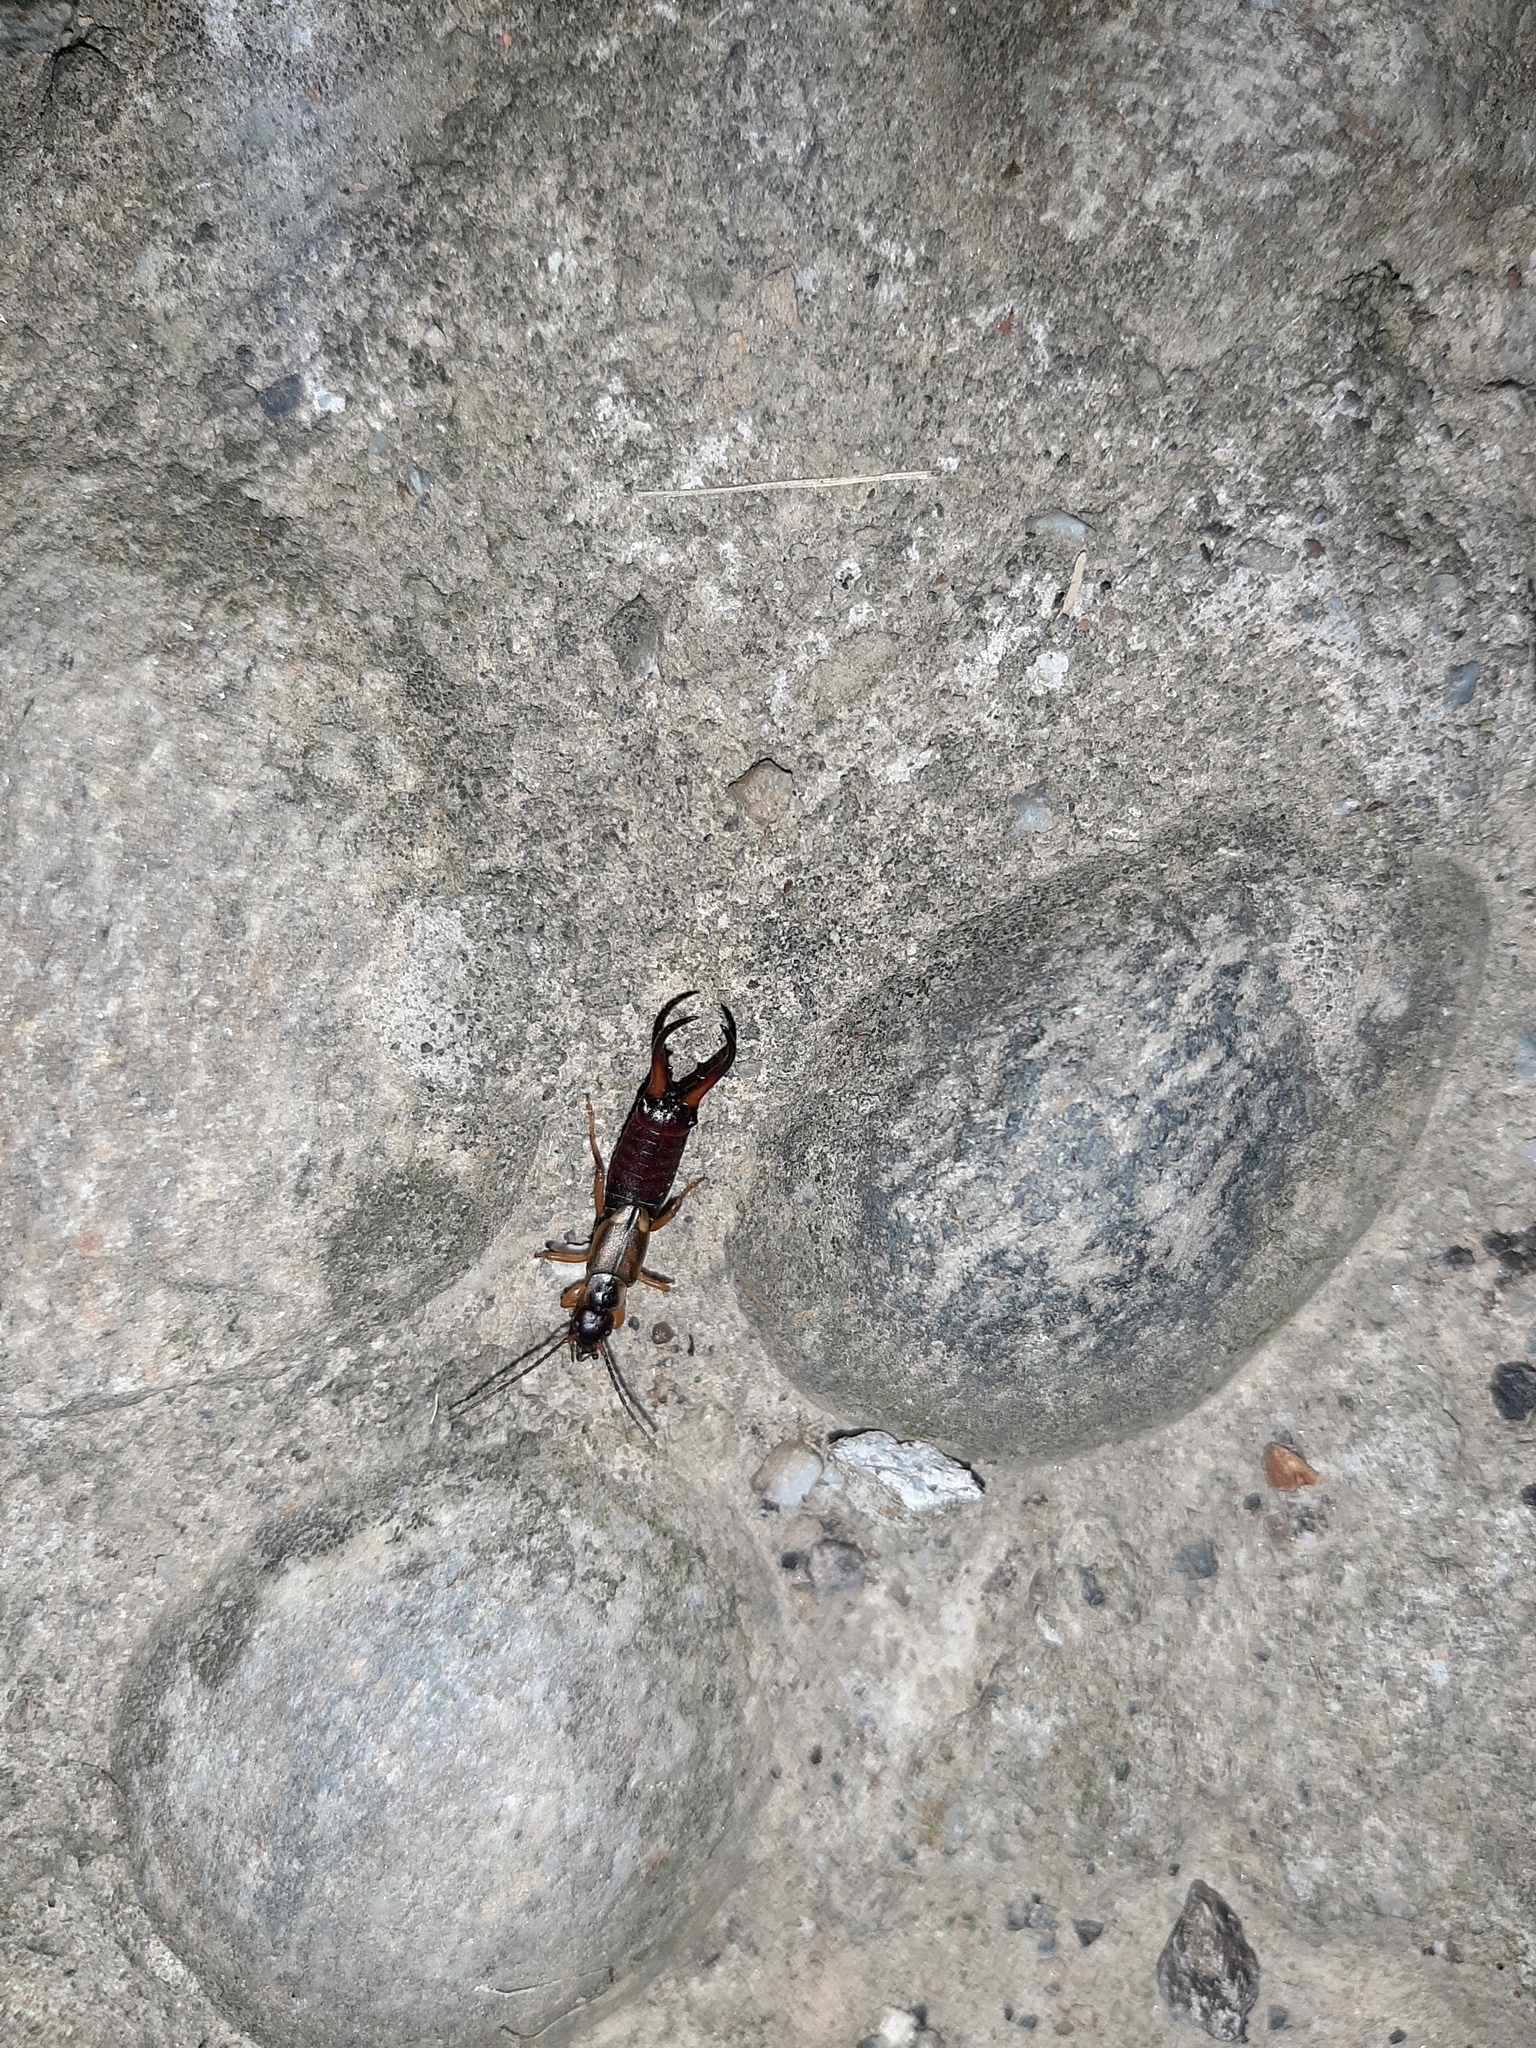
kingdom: Animalia
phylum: Arthropoda
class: Insecta
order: Dermaptera
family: Forficulidae
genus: Forficula
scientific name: Forficula
